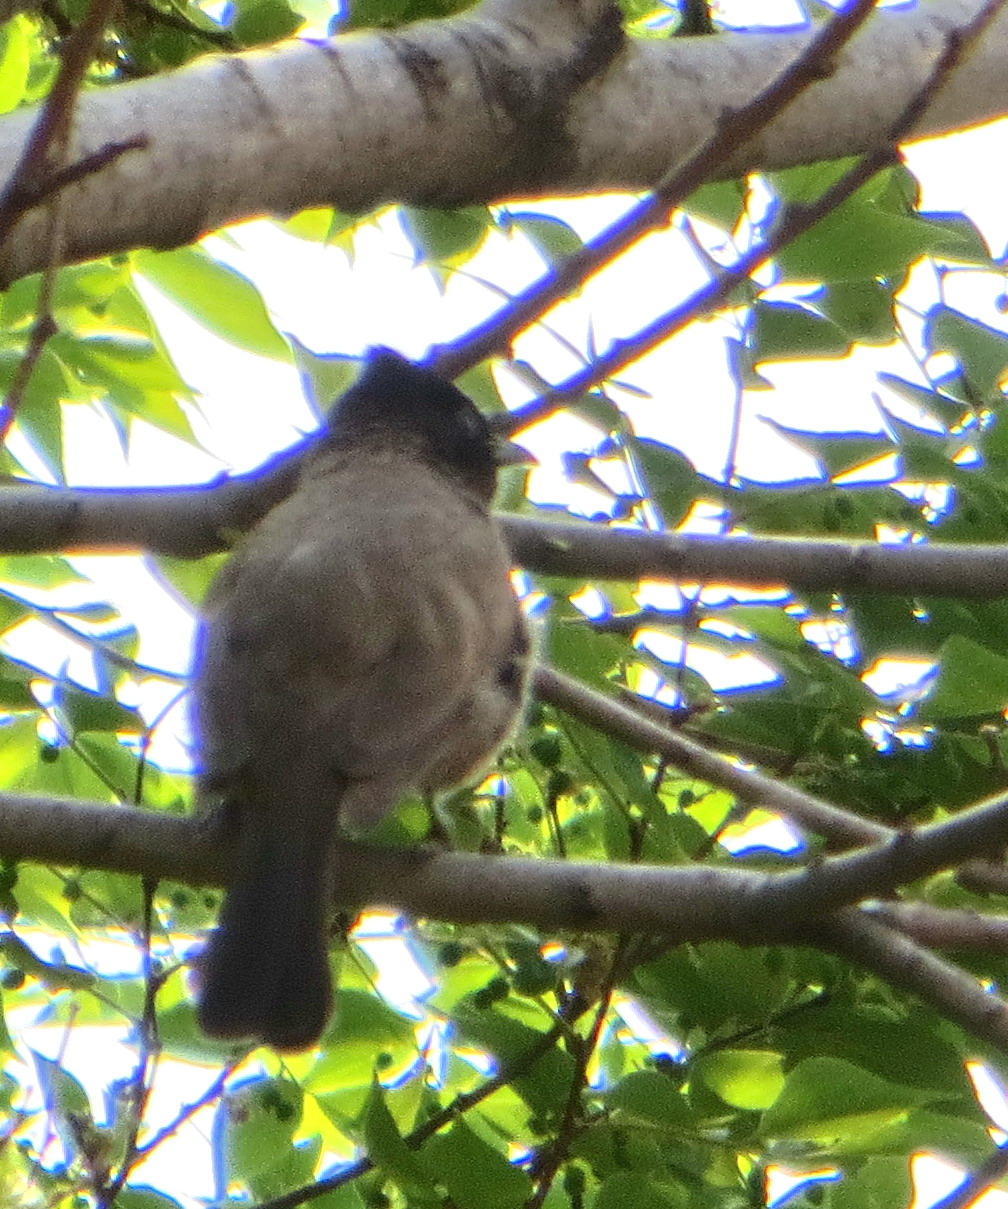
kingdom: Animalia
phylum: Chordata
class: Aves
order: Passeriformes
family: Pycnonotidae
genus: Pycnonotus
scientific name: Pycnonotus barbatus
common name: Common bulbul
